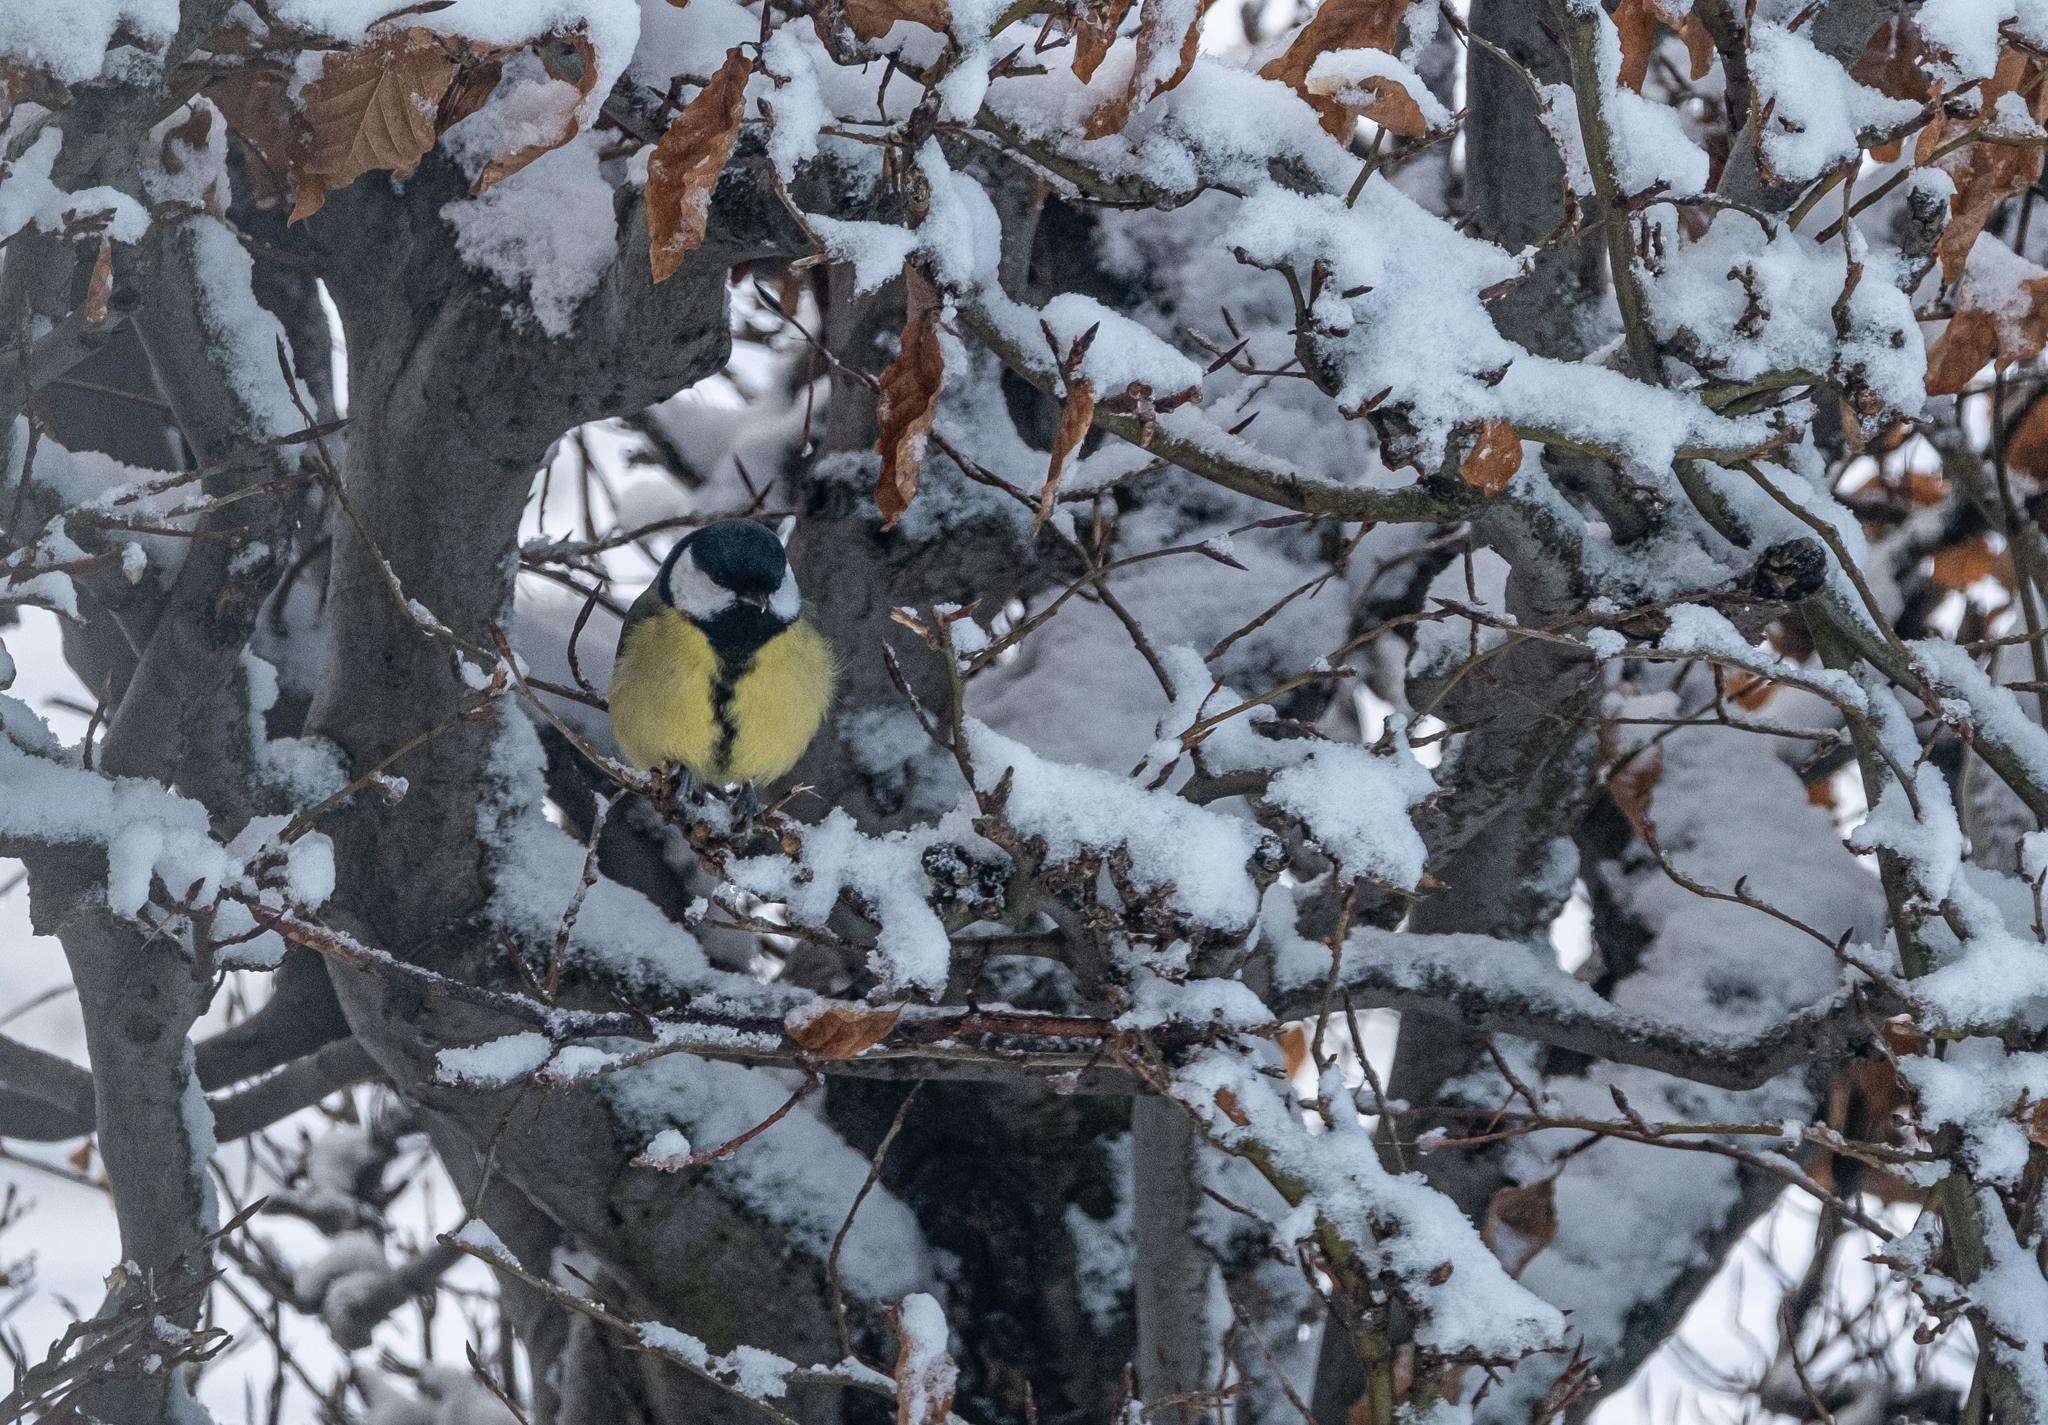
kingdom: Animalia
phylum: Chordata
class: Aves
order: Passeriformes
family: Paridae
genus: Parus
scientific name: Parus major
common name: Great tit
